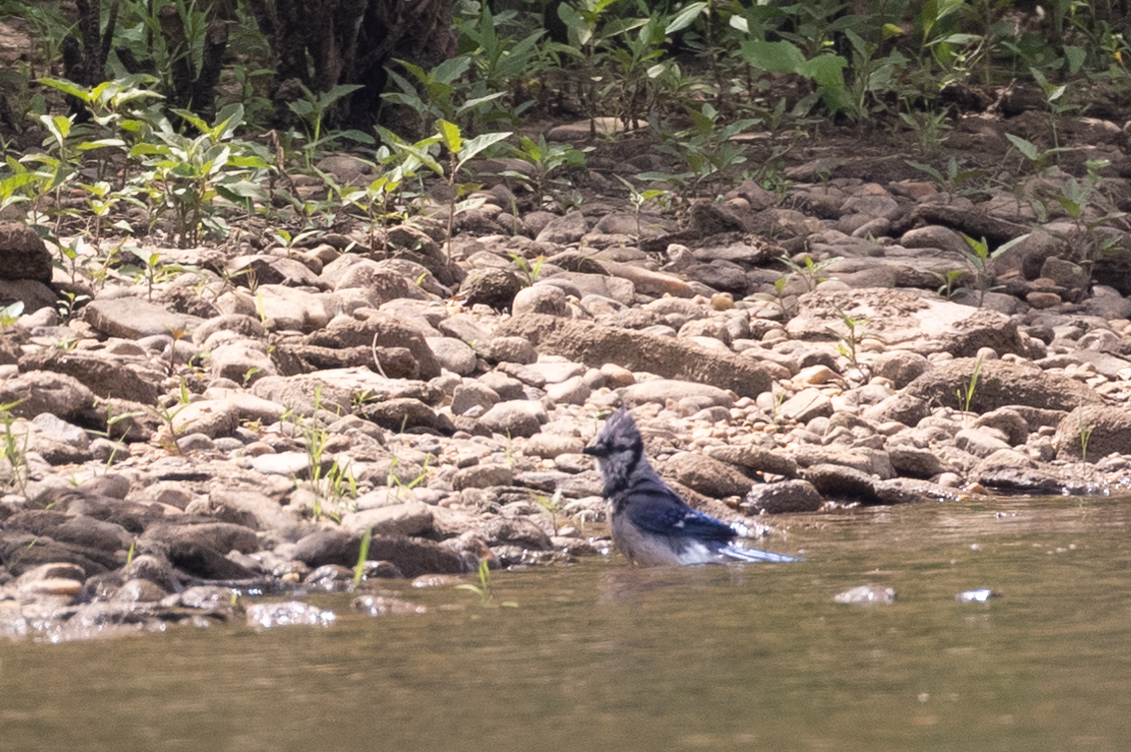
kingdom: Animalia
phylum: Chordata
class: Aves
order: Passeriformes
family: Corvidae
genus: Cyanocitta
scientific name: Cyanocitta cristata
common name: Blue jay
